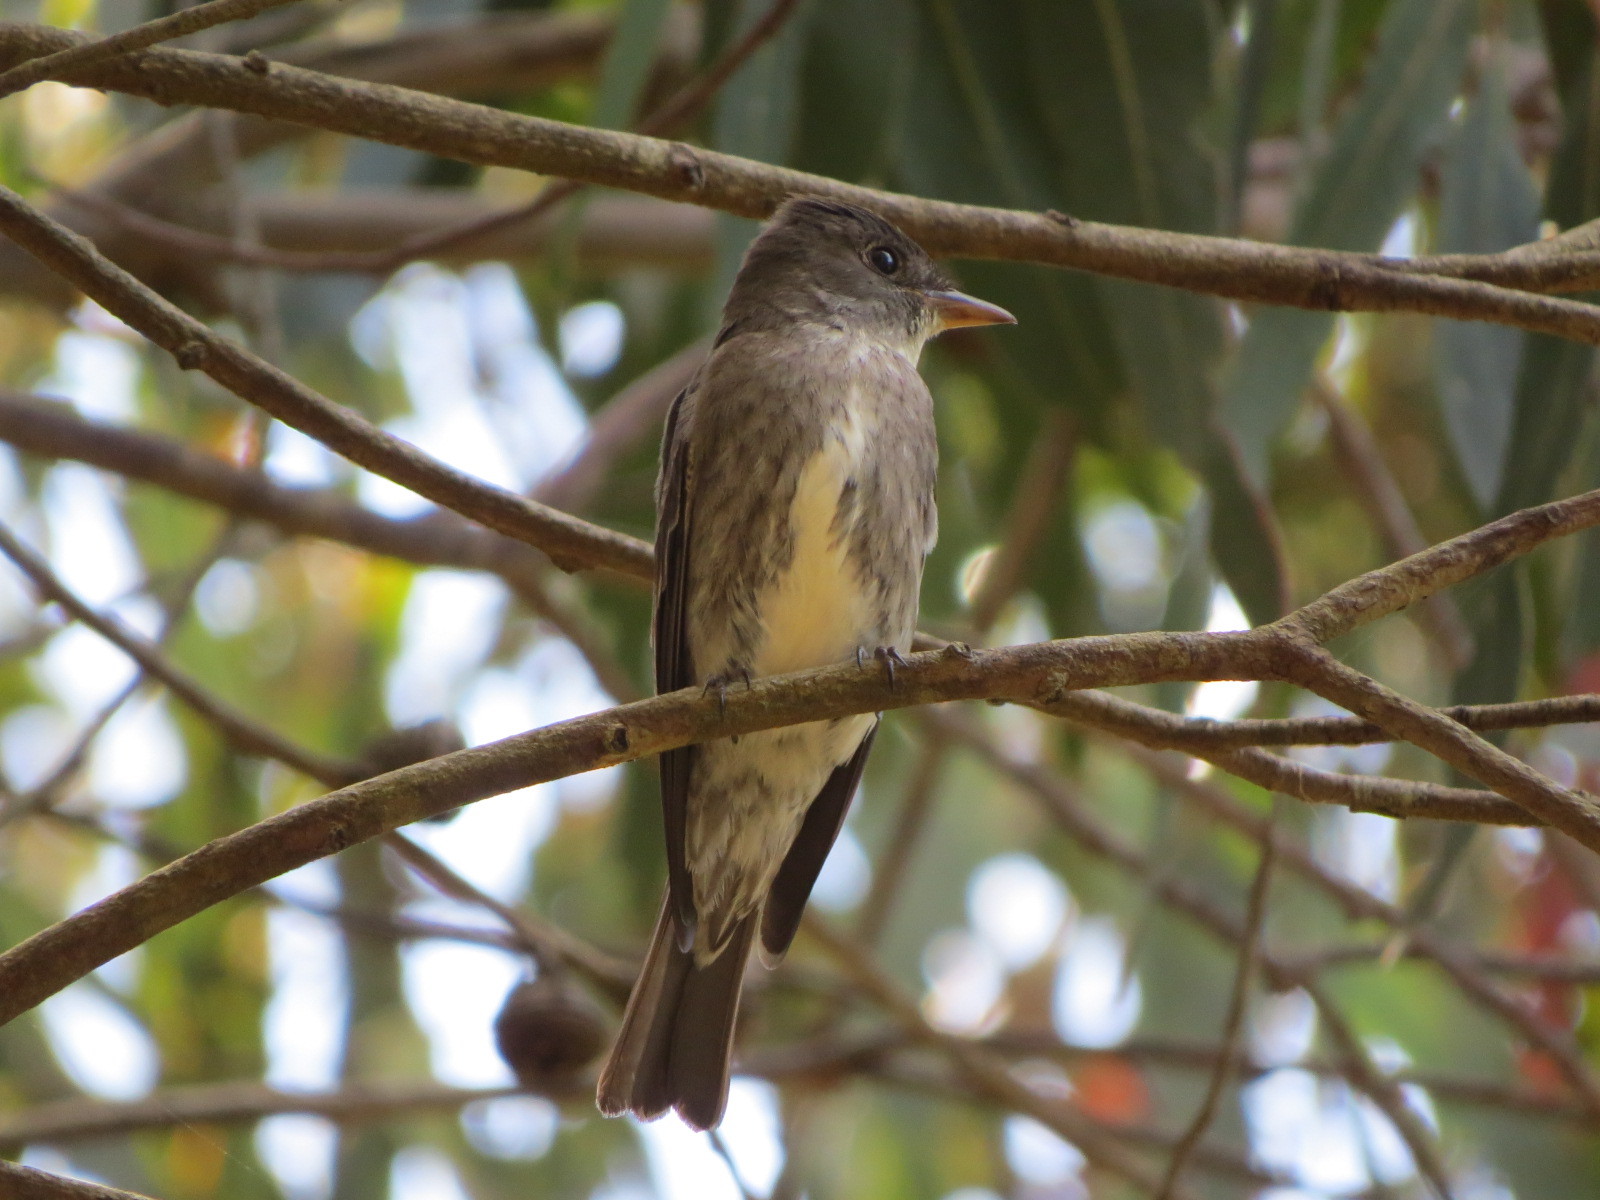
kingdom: Animalia
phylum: Chordata
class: Aves
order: Passeriformes
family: Tyrannidae
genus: Contopus
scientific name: Contopus cooperi
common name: Olive-sided flycatcher
